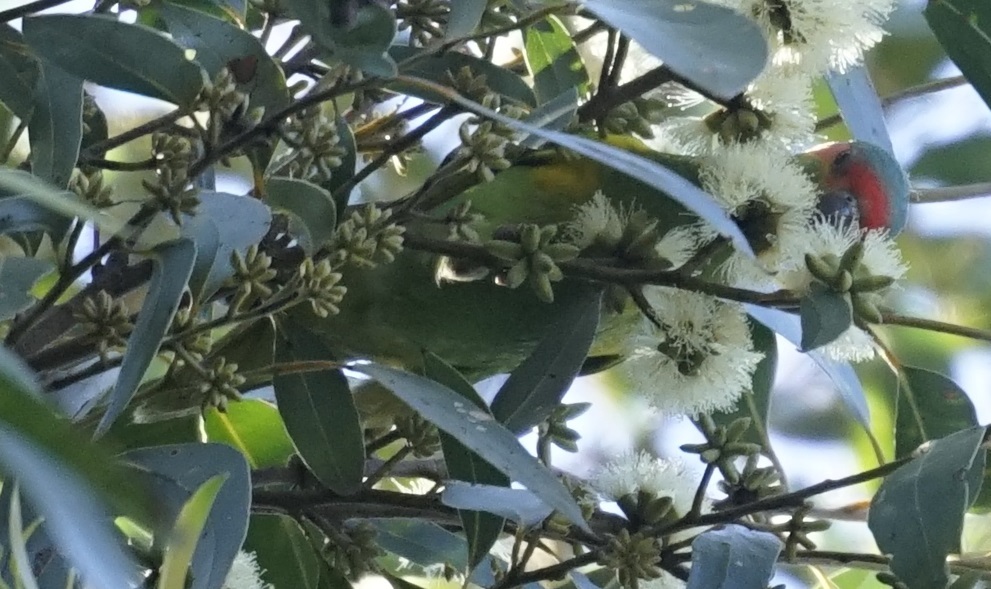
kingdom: Animalia
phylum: Chordata
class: Aves
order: Psittaciformes
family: Psittacidae
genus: Glossopsitta
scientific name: Glossopsitta concinna
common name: Musk lorikeet
